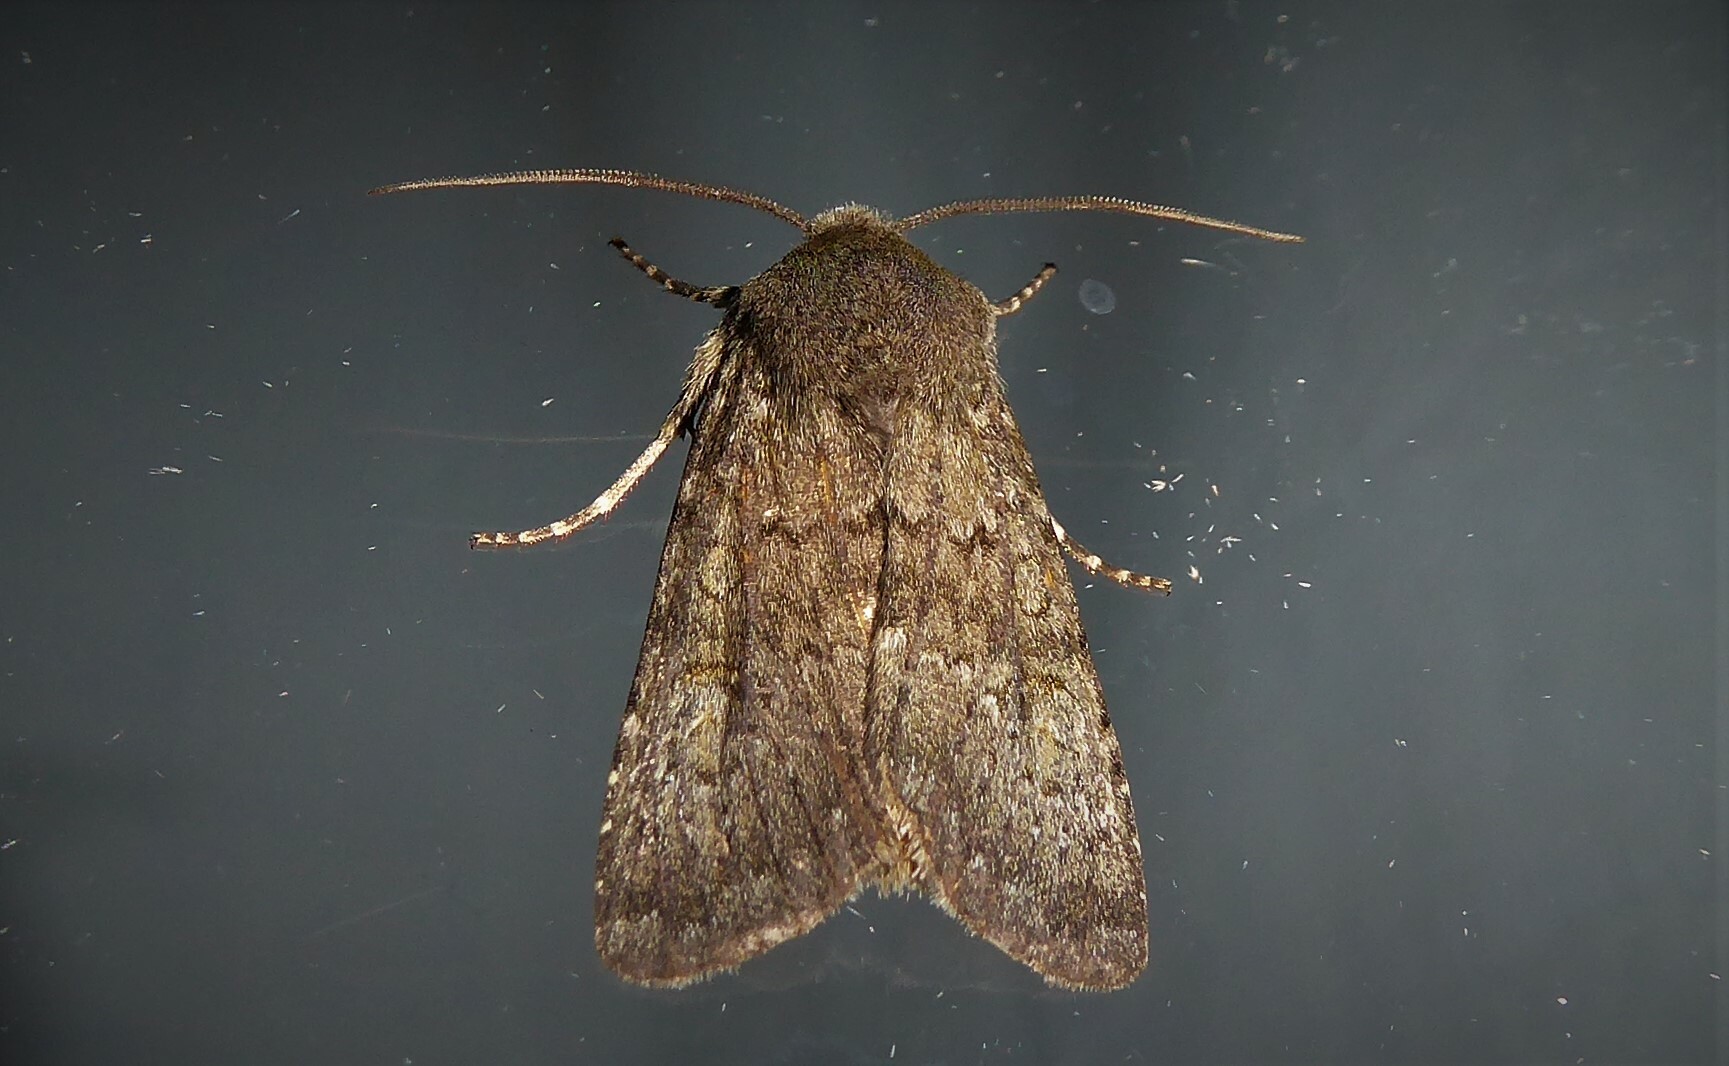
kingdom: Animalia
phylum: Arthropoda
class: Insecta
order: Lepidoptera
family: Noctuidae
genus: Ichneutica
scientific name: Ichneutica moderata
